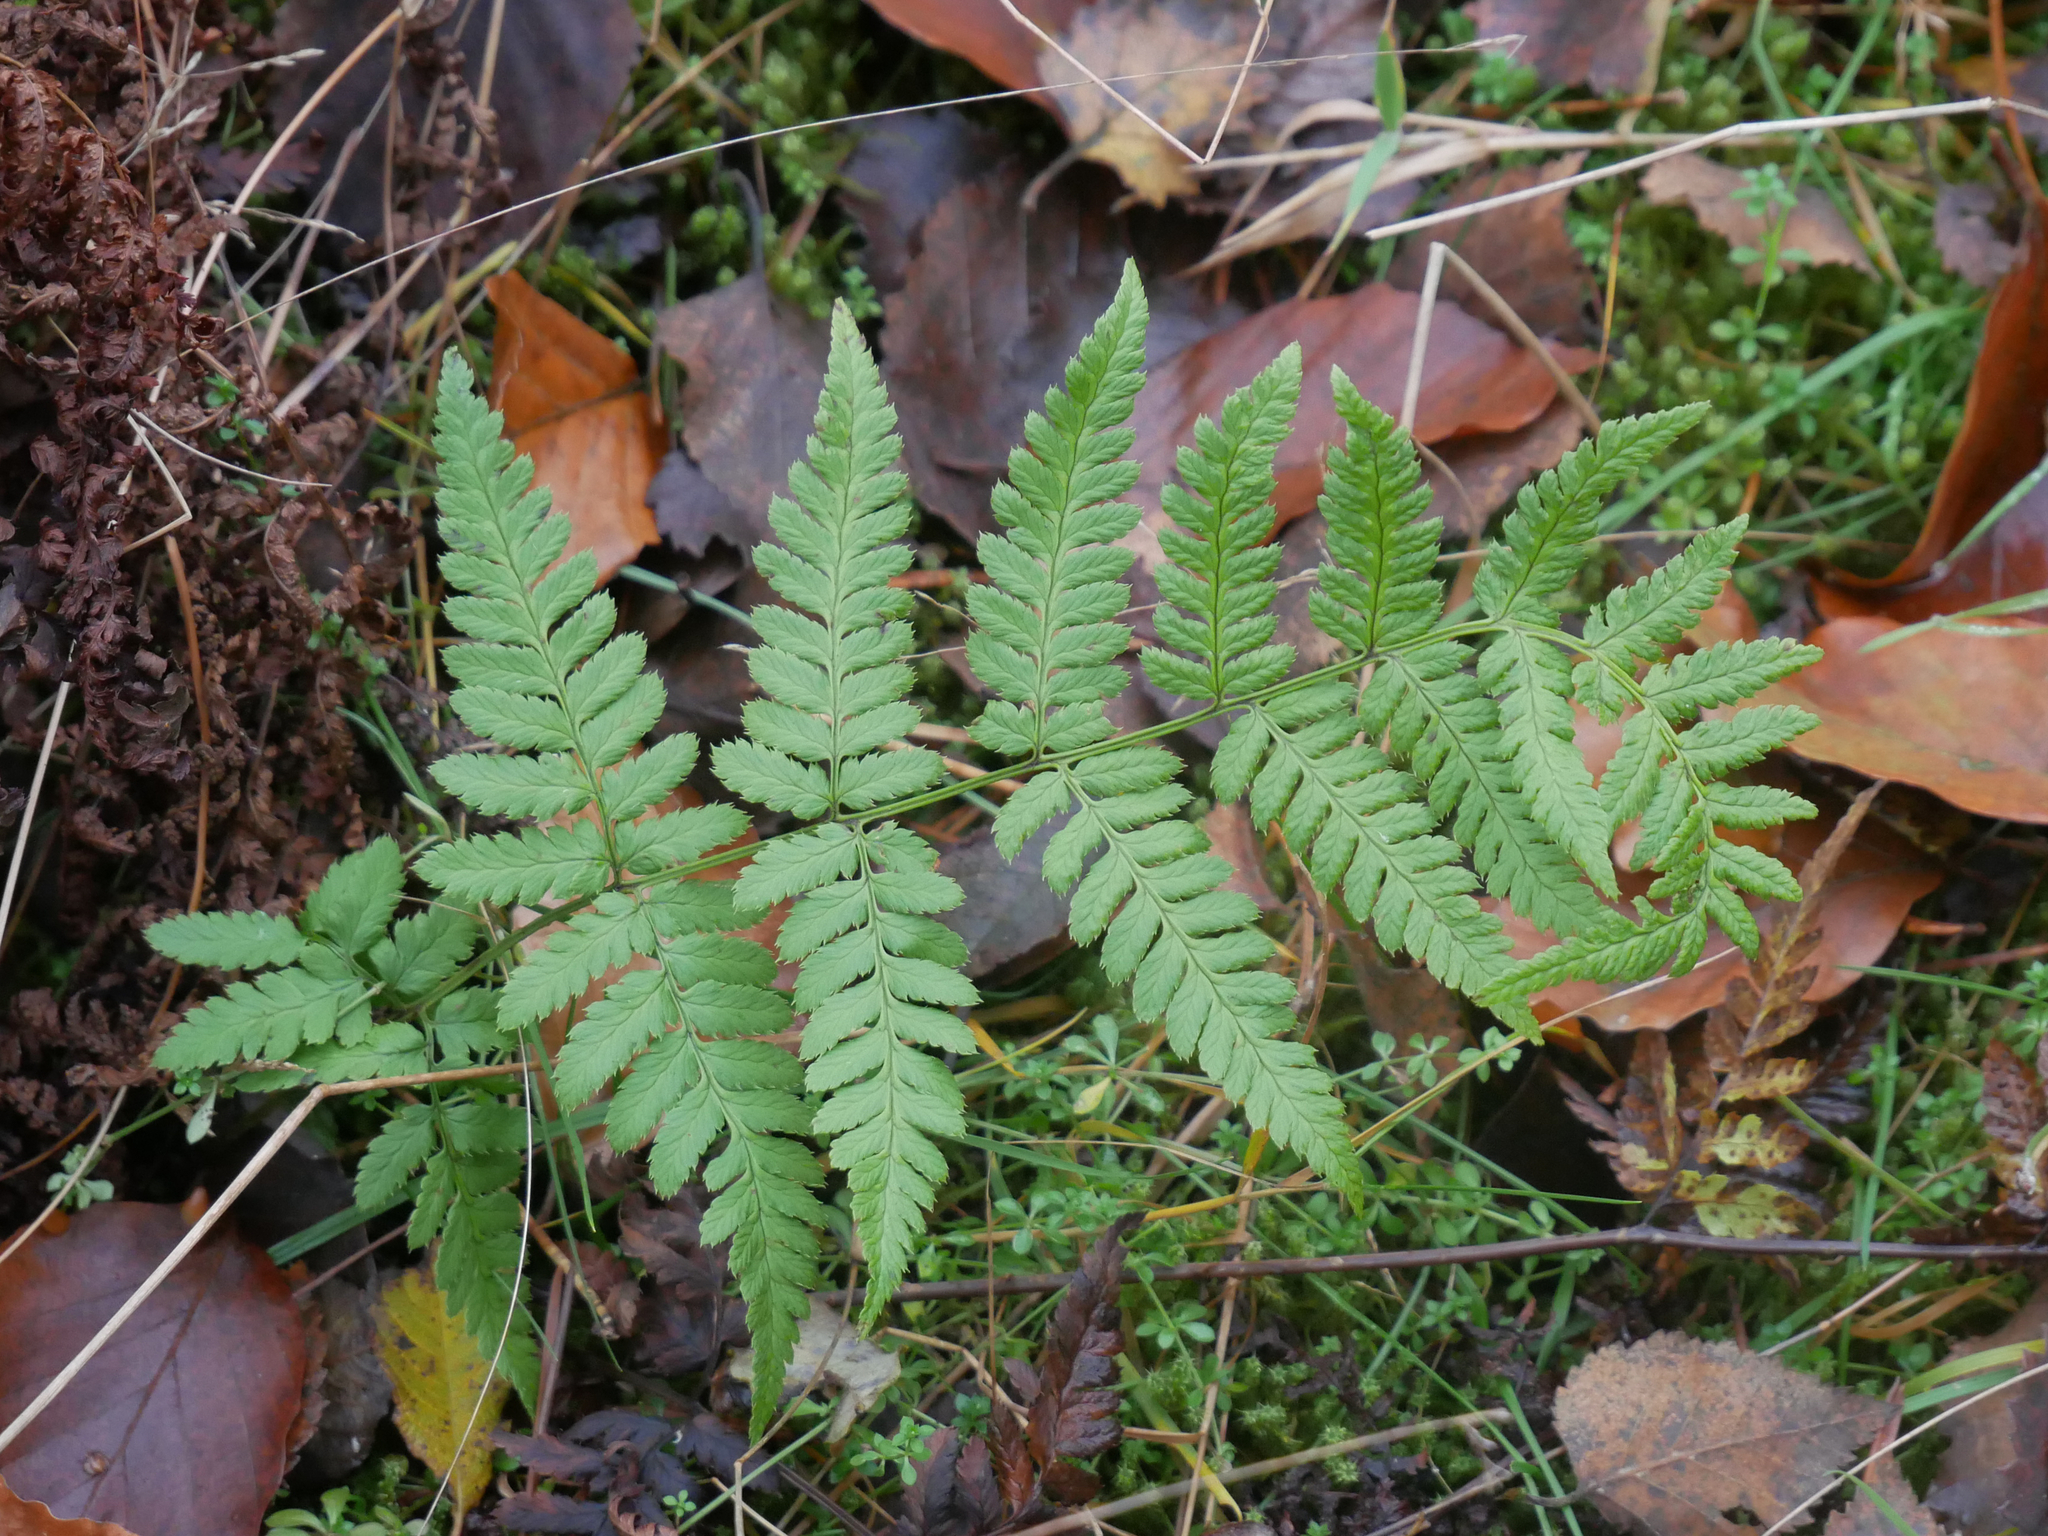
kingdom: Plantae
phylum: Tracheophyta
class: Polypodiopsida
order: Polypodiales
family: Dryopteridaceae
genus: Dryopteris
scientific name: Dryopteris carthusiana
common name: Narrow buckler-fern
